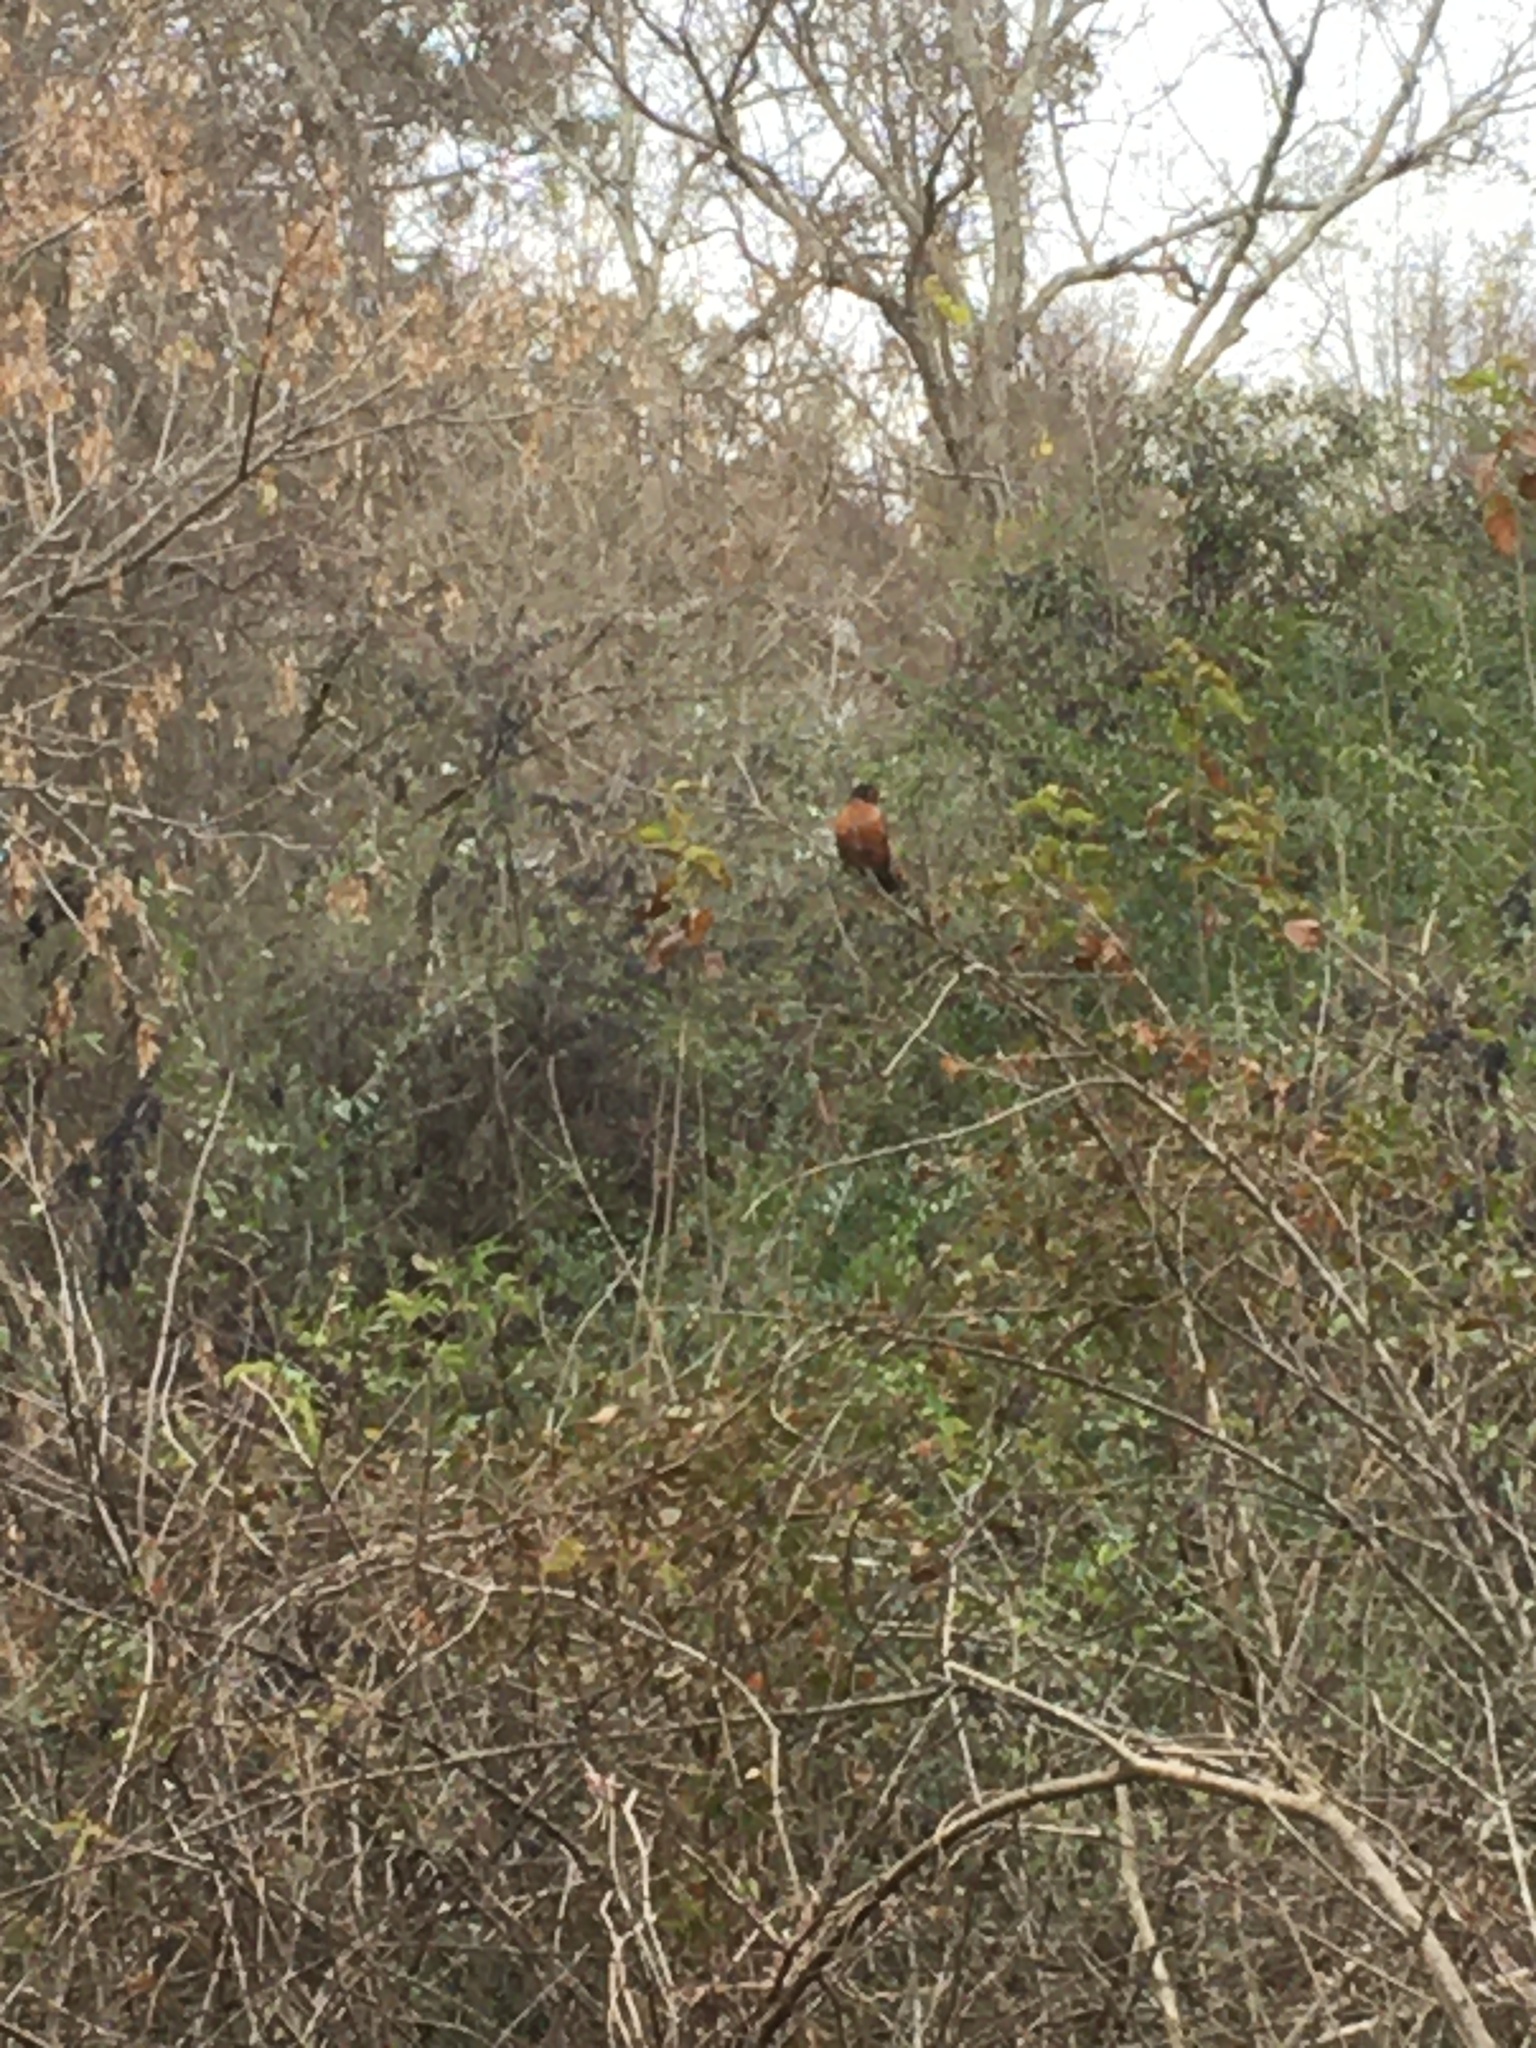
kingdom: Animalia
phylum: Chordata
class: Aves
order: Passeriformes
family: Turdidae
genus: Turdus
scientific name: Turdus migratorius
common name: American robin
